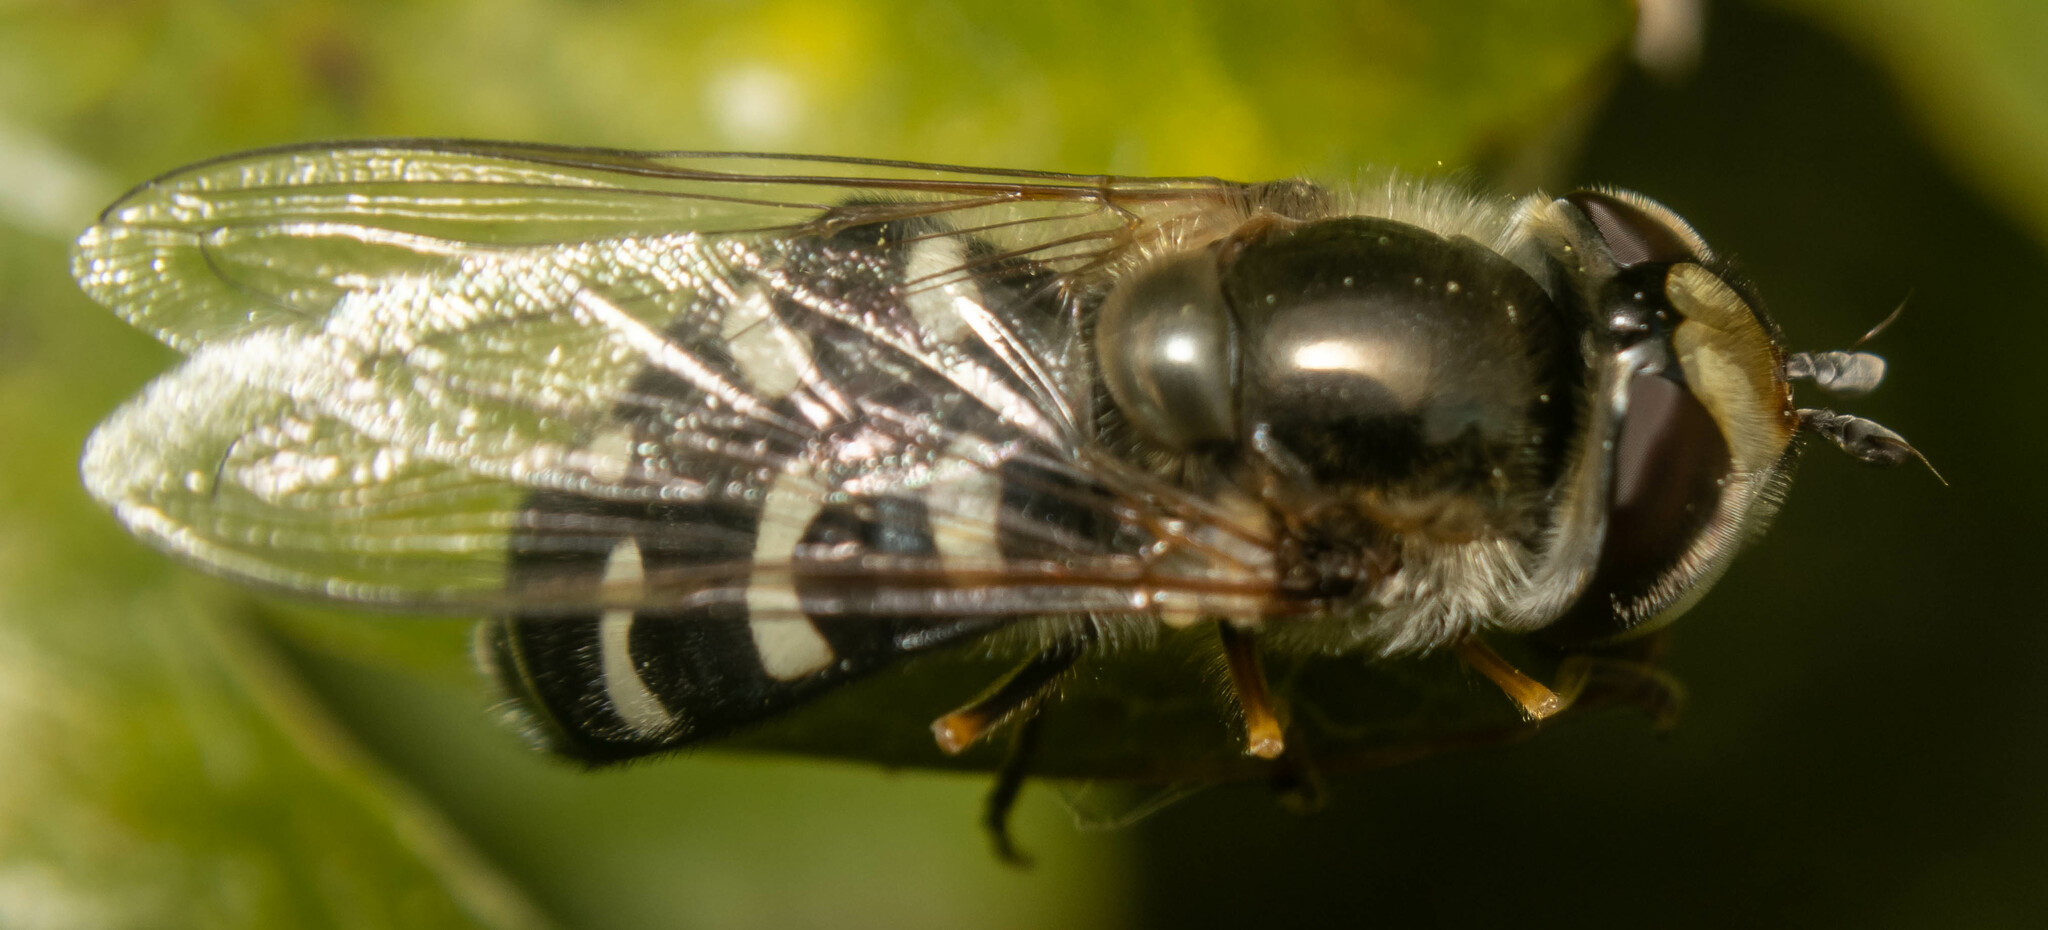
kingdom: Animalia
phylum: Arthropoda
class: Insecta
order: Diptera
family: Syrphidae
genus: Scaeva
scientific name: Scaeva pyrastri
